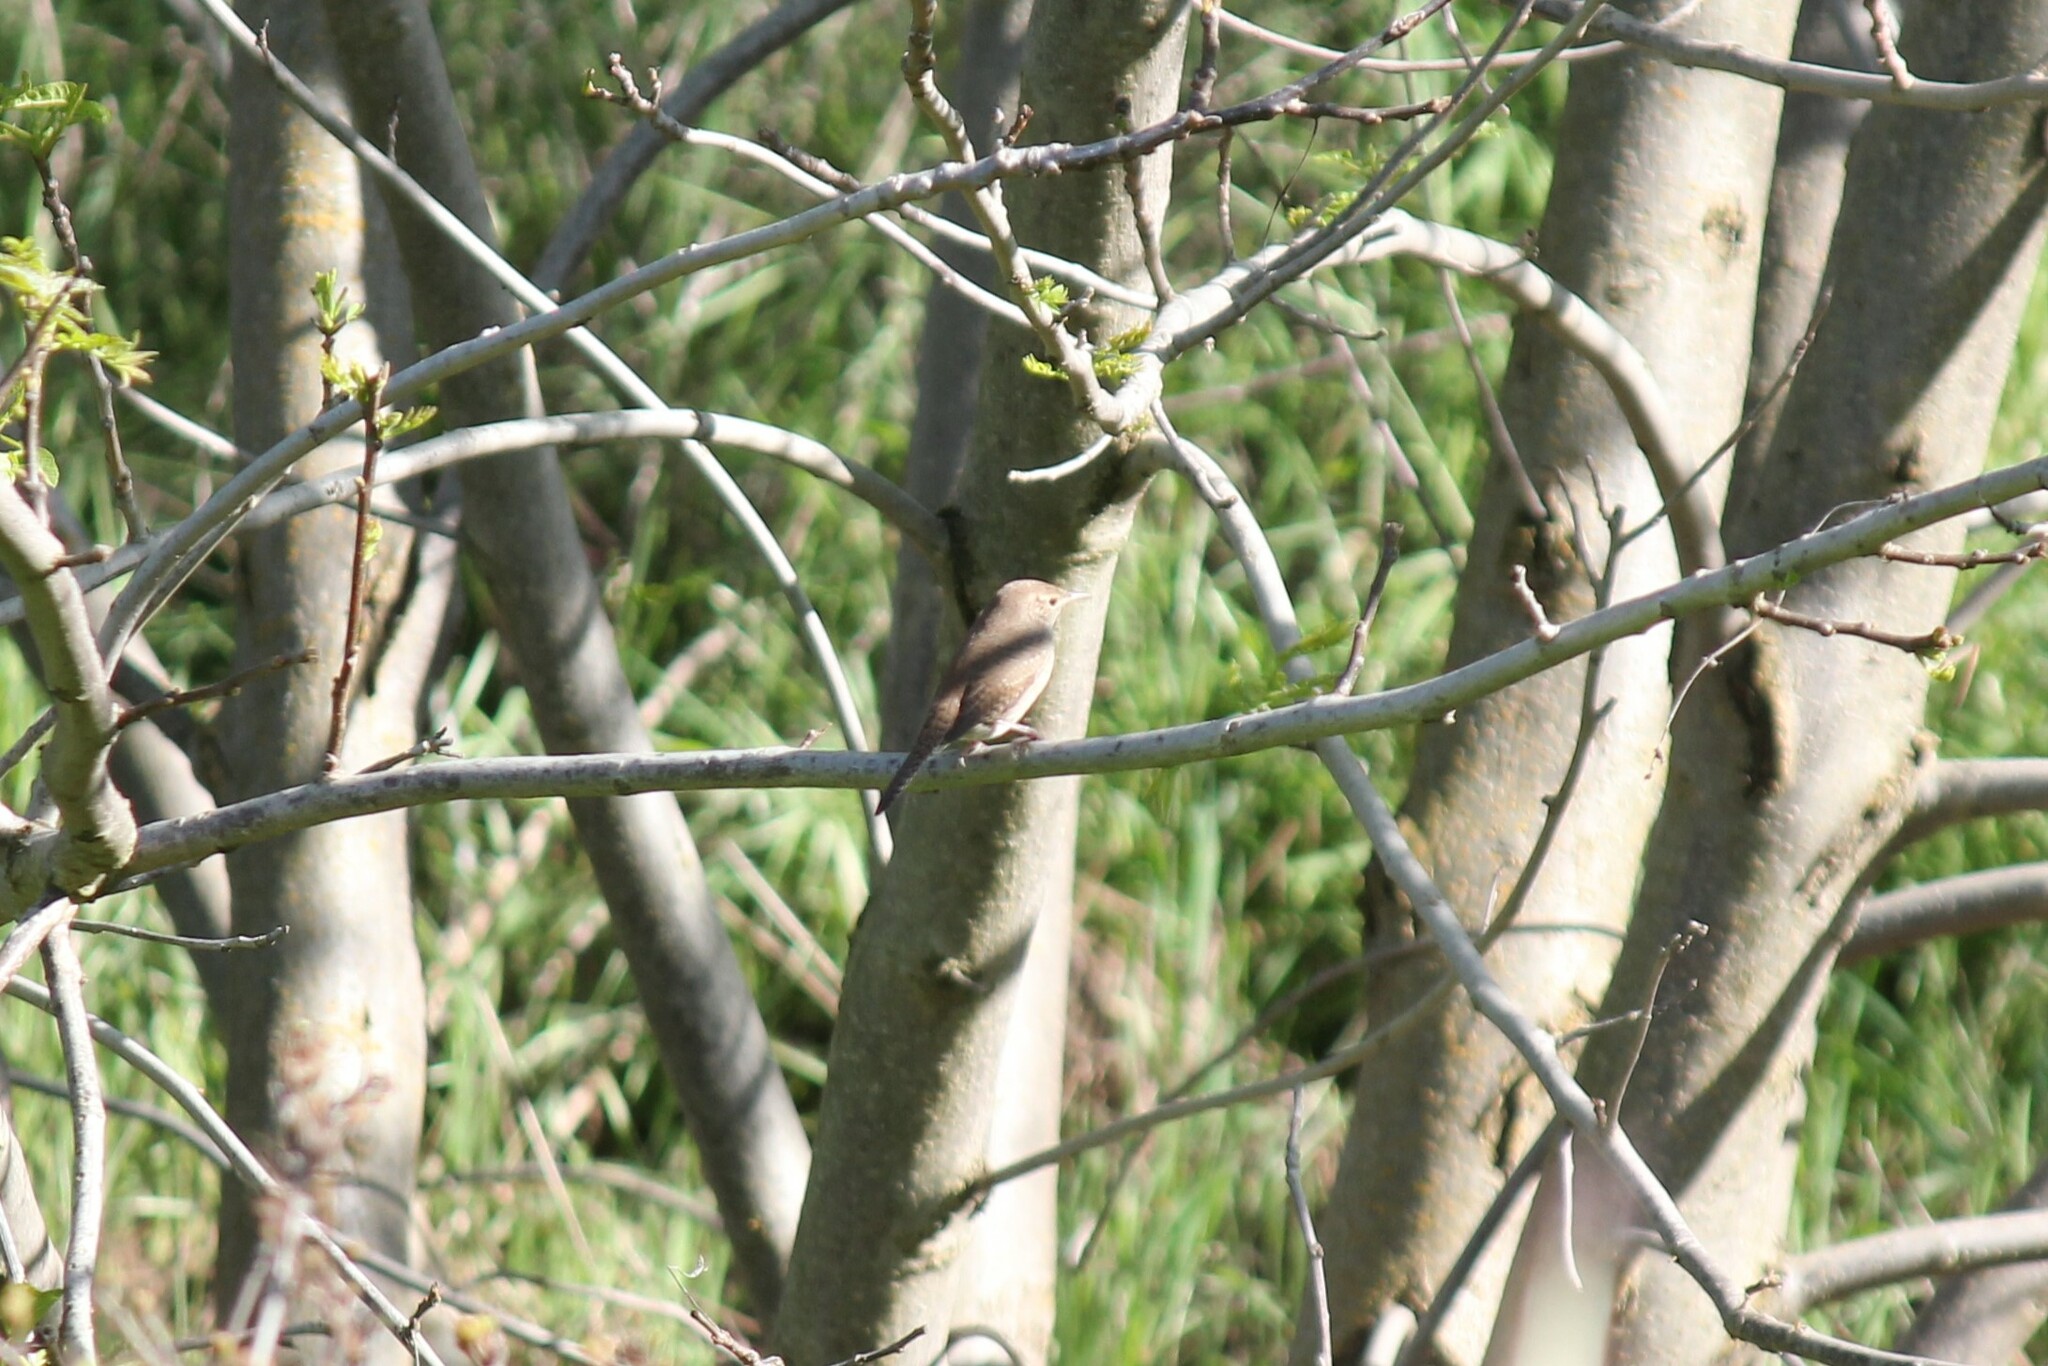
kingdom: Animalia
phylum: Chordata
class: Aves
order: Passeriformes
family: Troglodytidae
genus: Troglodytes
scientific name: Troglodytes aedon
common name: House wren
